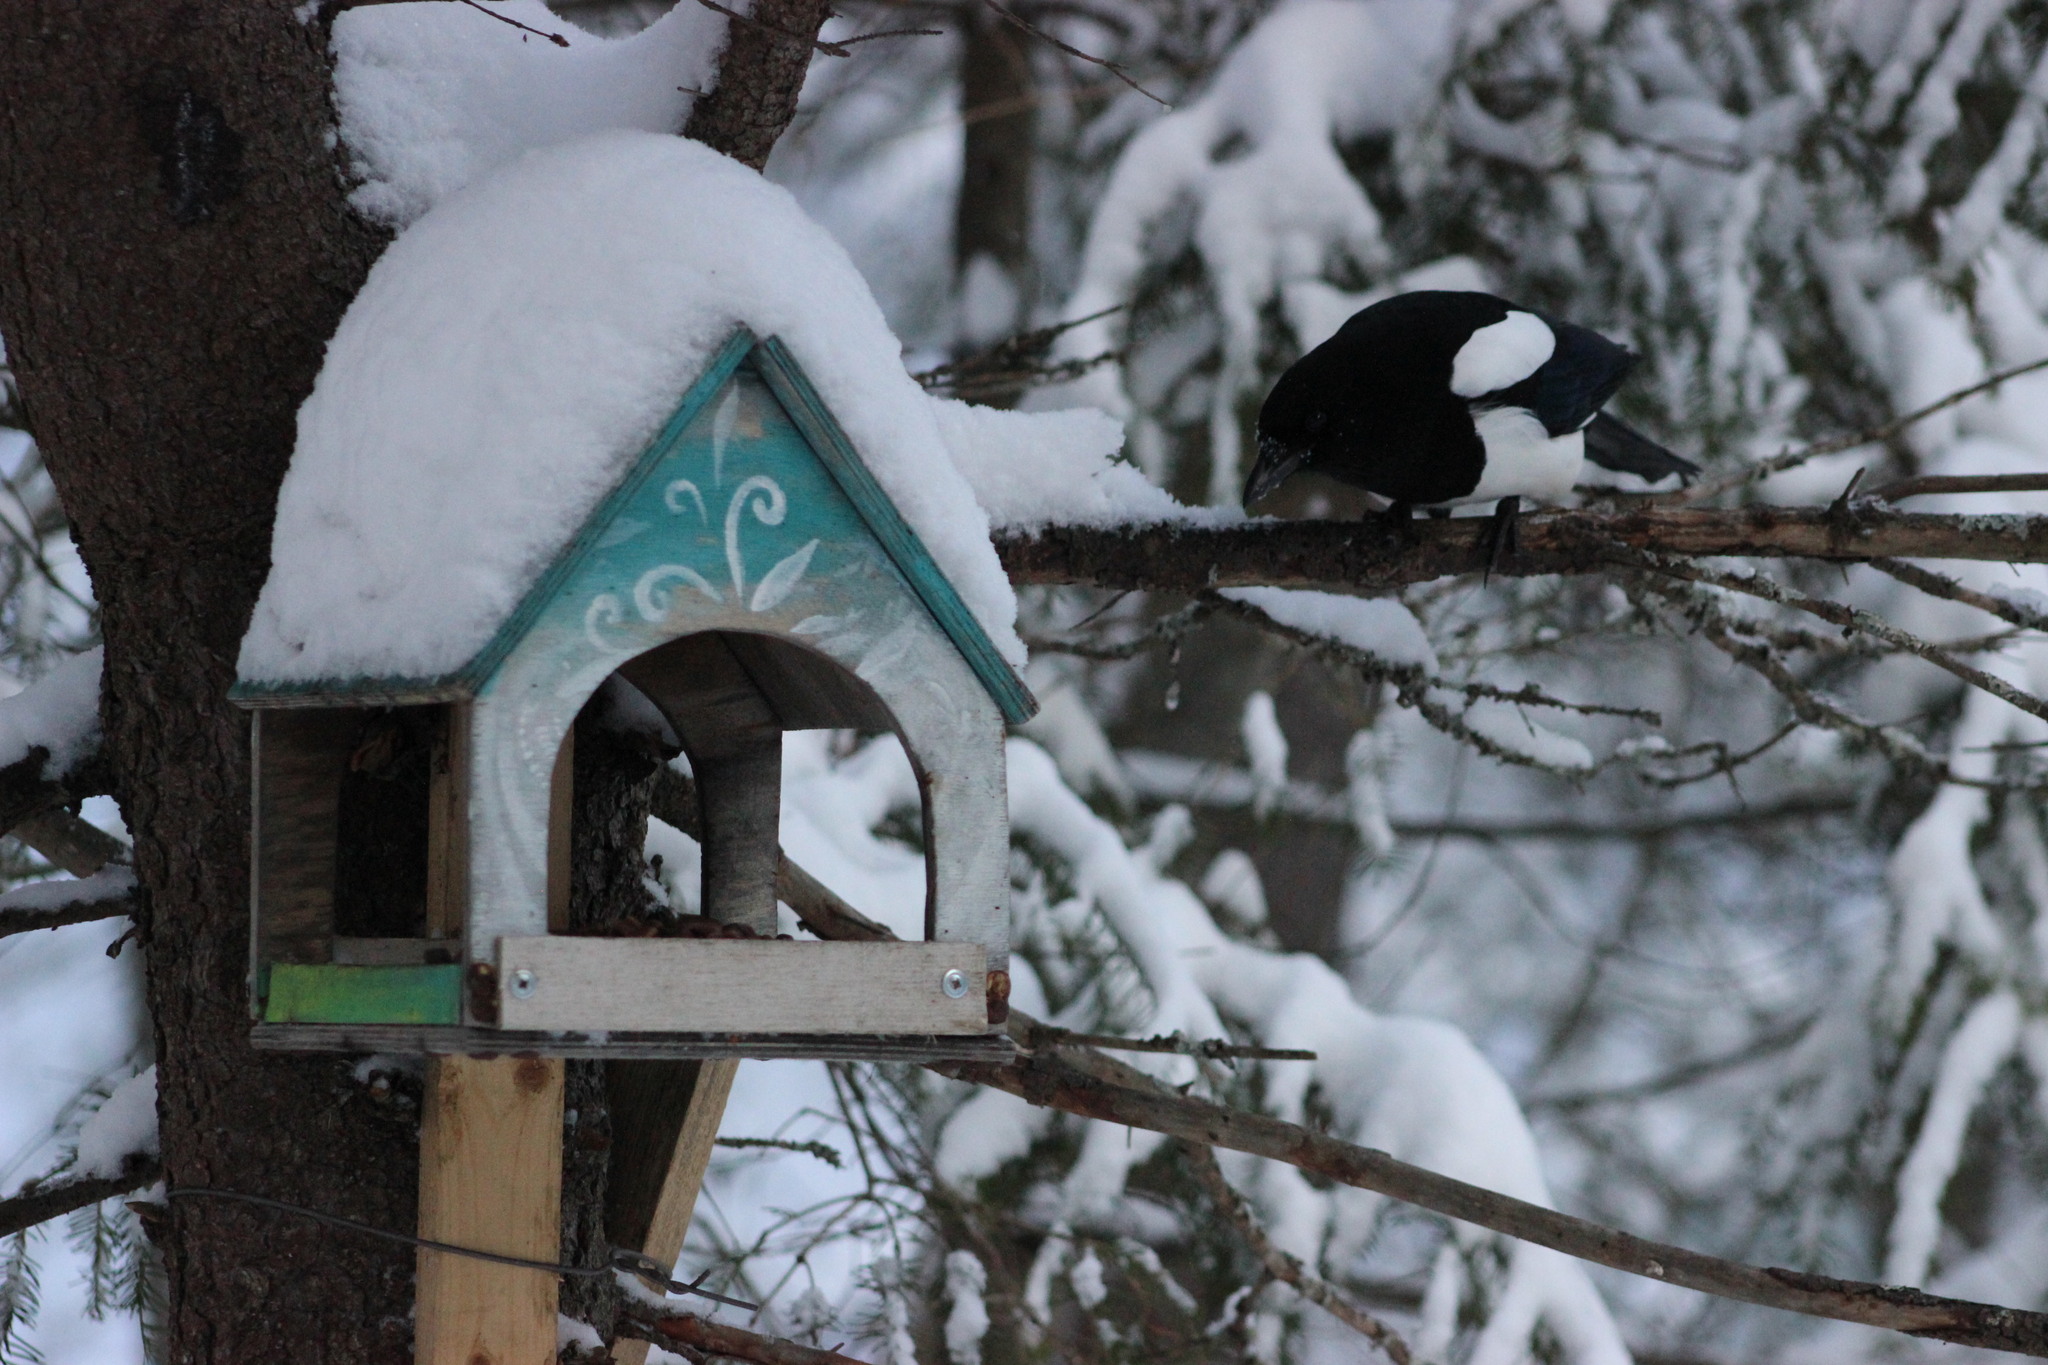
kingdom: Animalia
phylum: Chordata
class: Aves
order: Passeriformes
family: Corvidae
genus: Pica
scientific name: Pica pica
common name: Eurasian magpie
